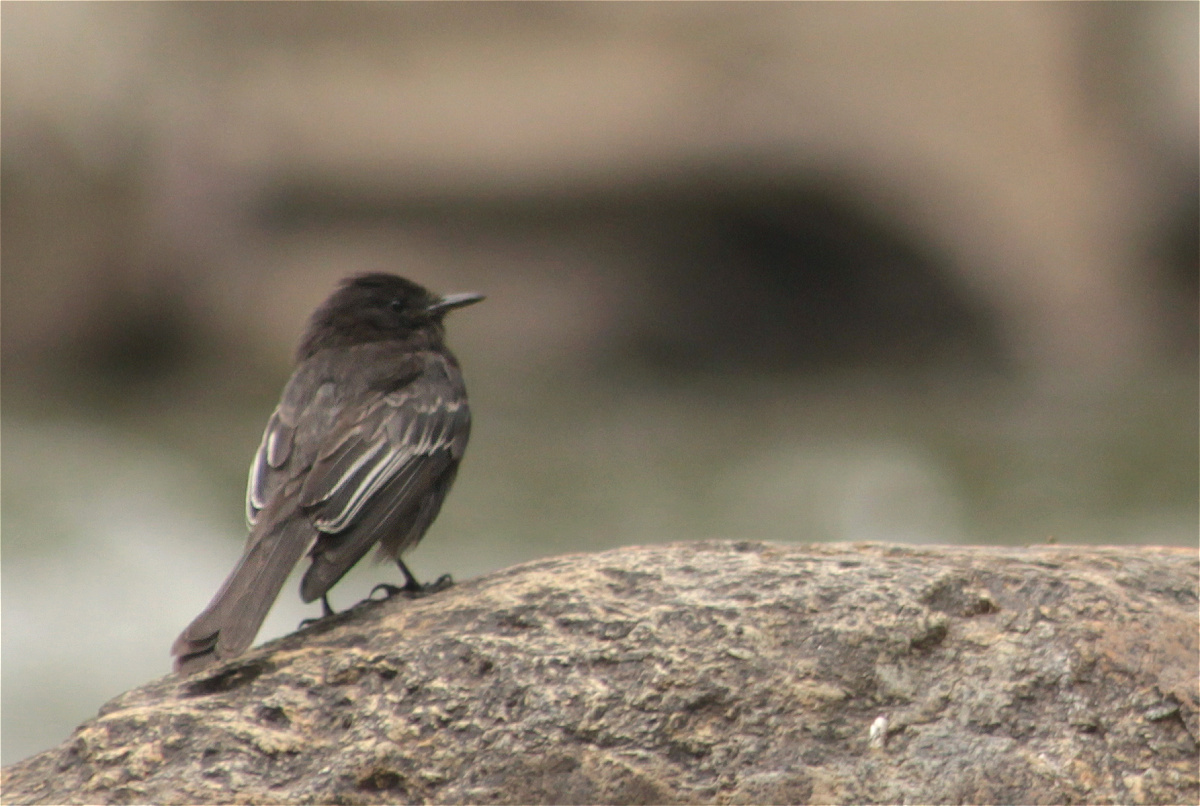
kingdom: Animalia
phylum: Chordata
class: Aves
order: Passeriformes
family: Tyrannidae
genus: Sayornis
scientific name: Sayornis nigricans
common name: Black phoebe
